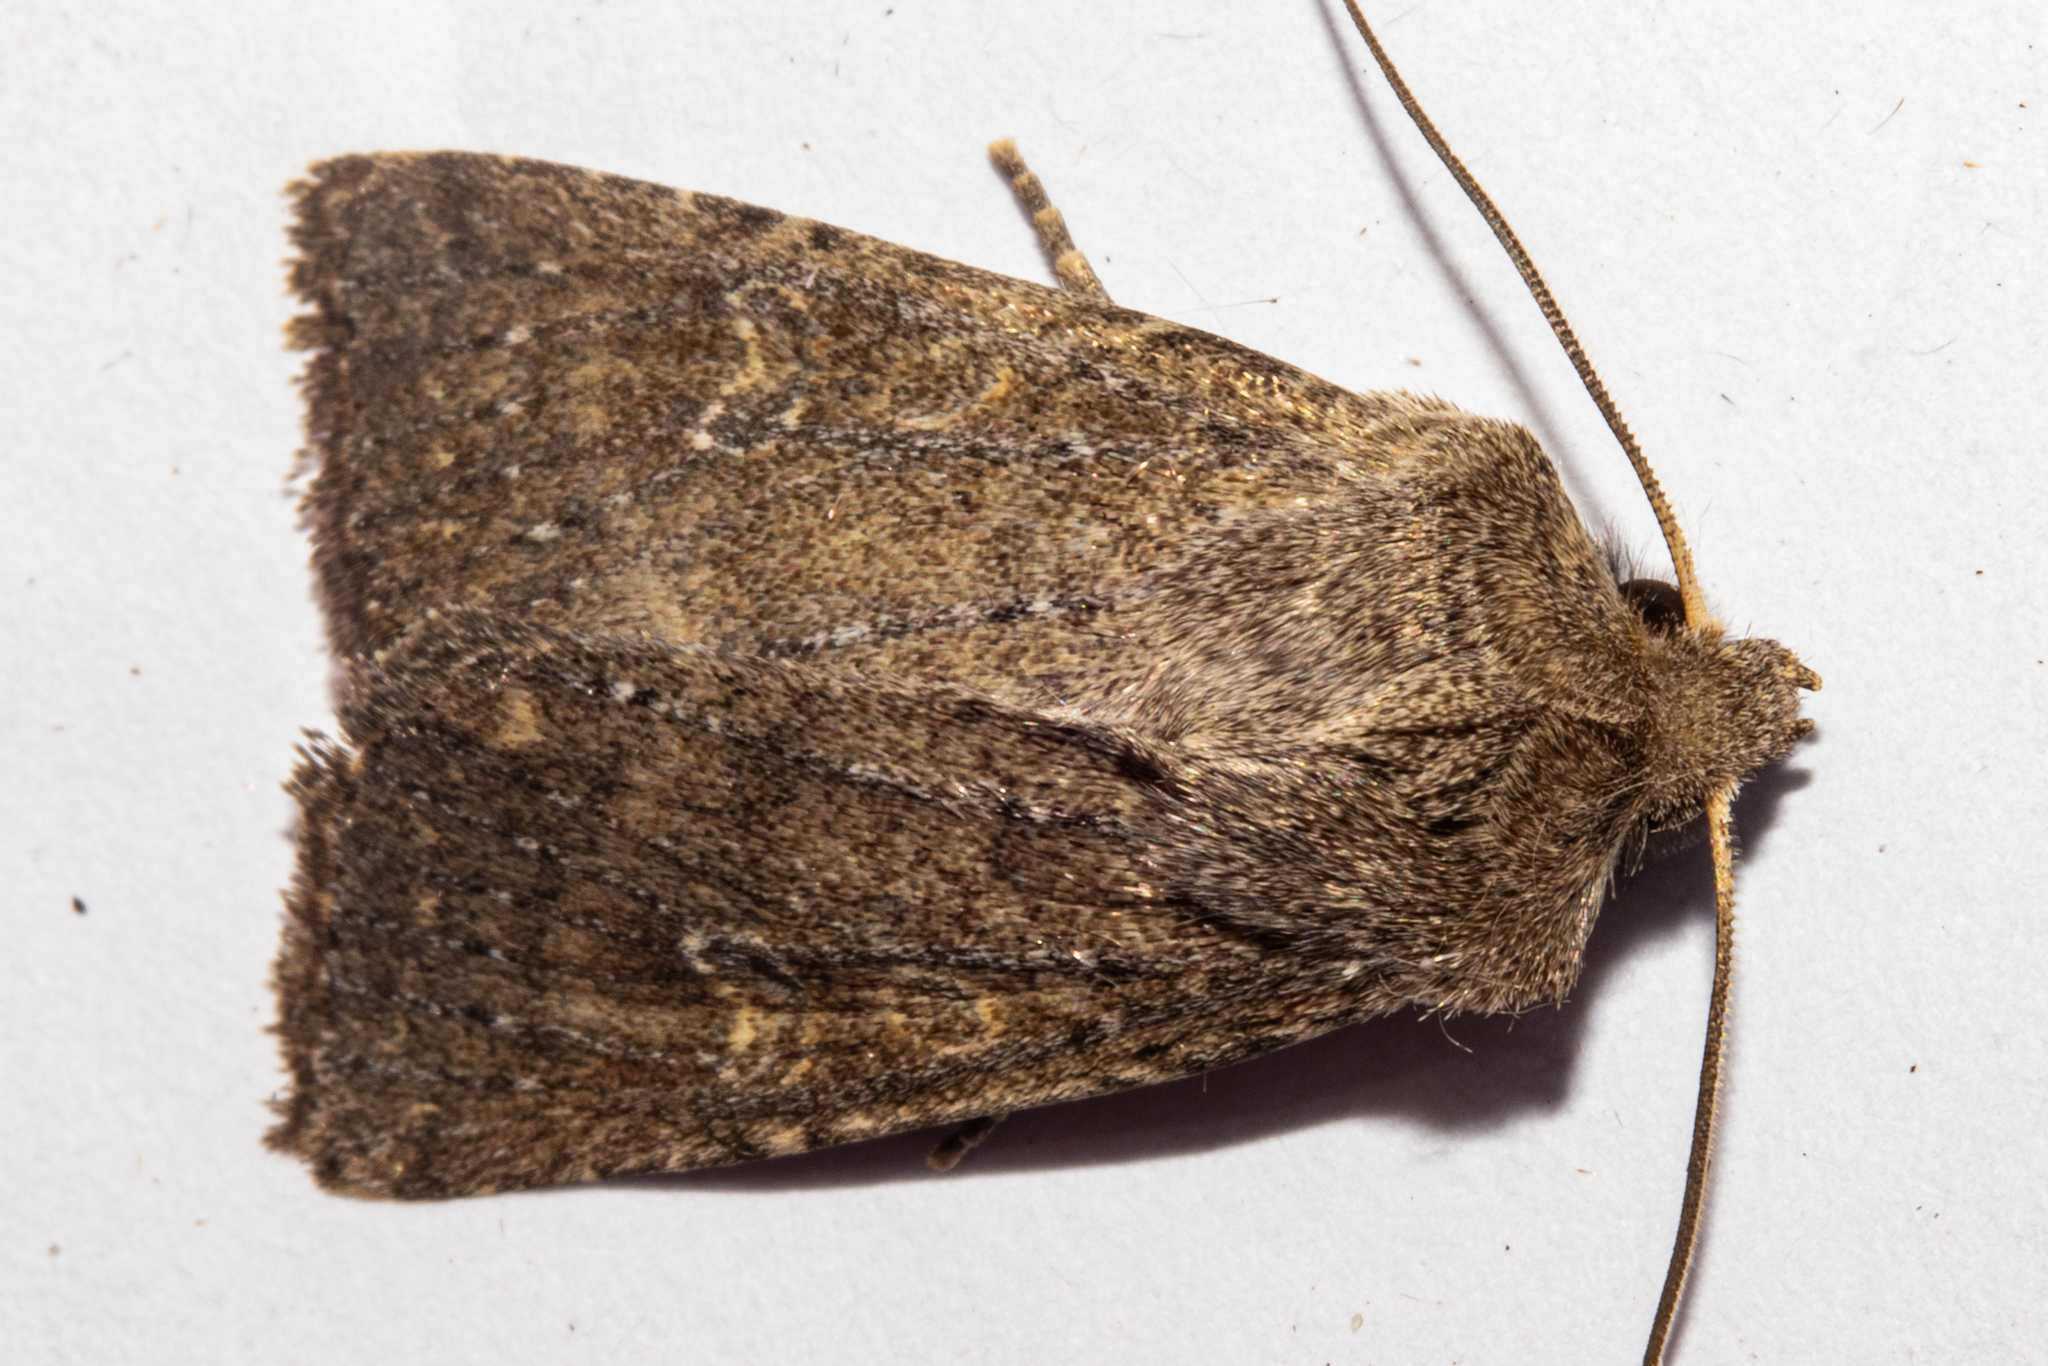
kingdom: Animalia
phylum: Arthropoda
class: Insecta
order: Lepidoptera
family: Noctuidae
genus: Physetica
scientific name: Physetica
